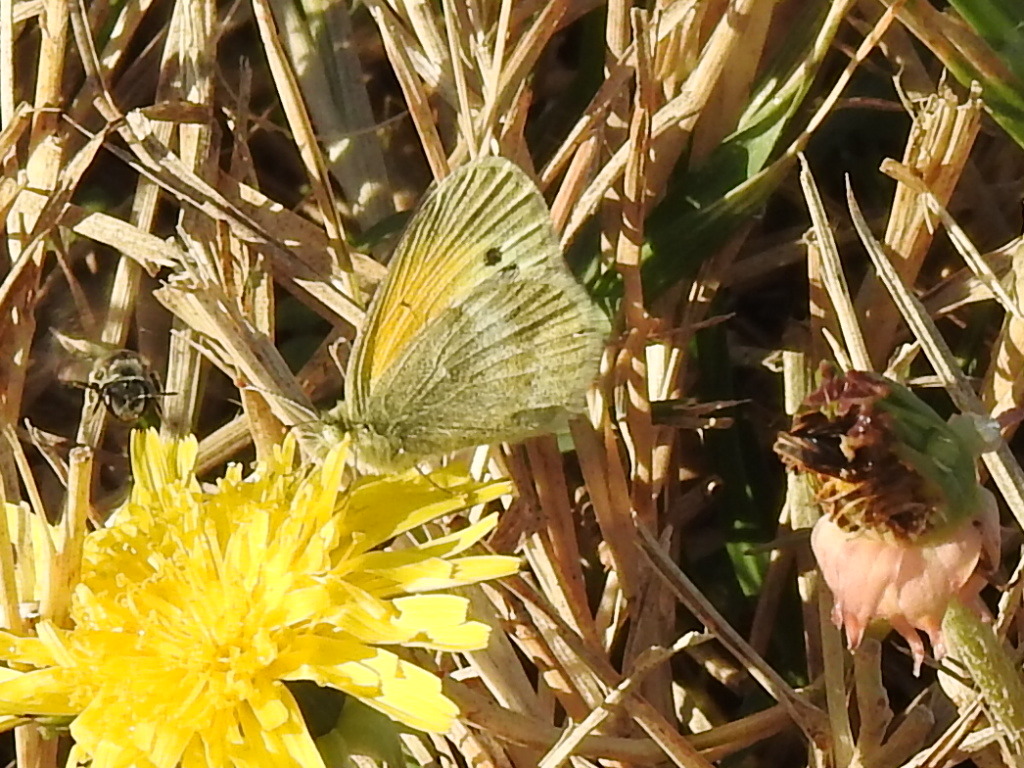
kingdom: Animalia
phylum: Arthropoda
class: Insecta
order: Lepidoptera
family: Pieridae
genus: Nathalis
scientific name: Nathalis iole
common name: Dainty sulphur
